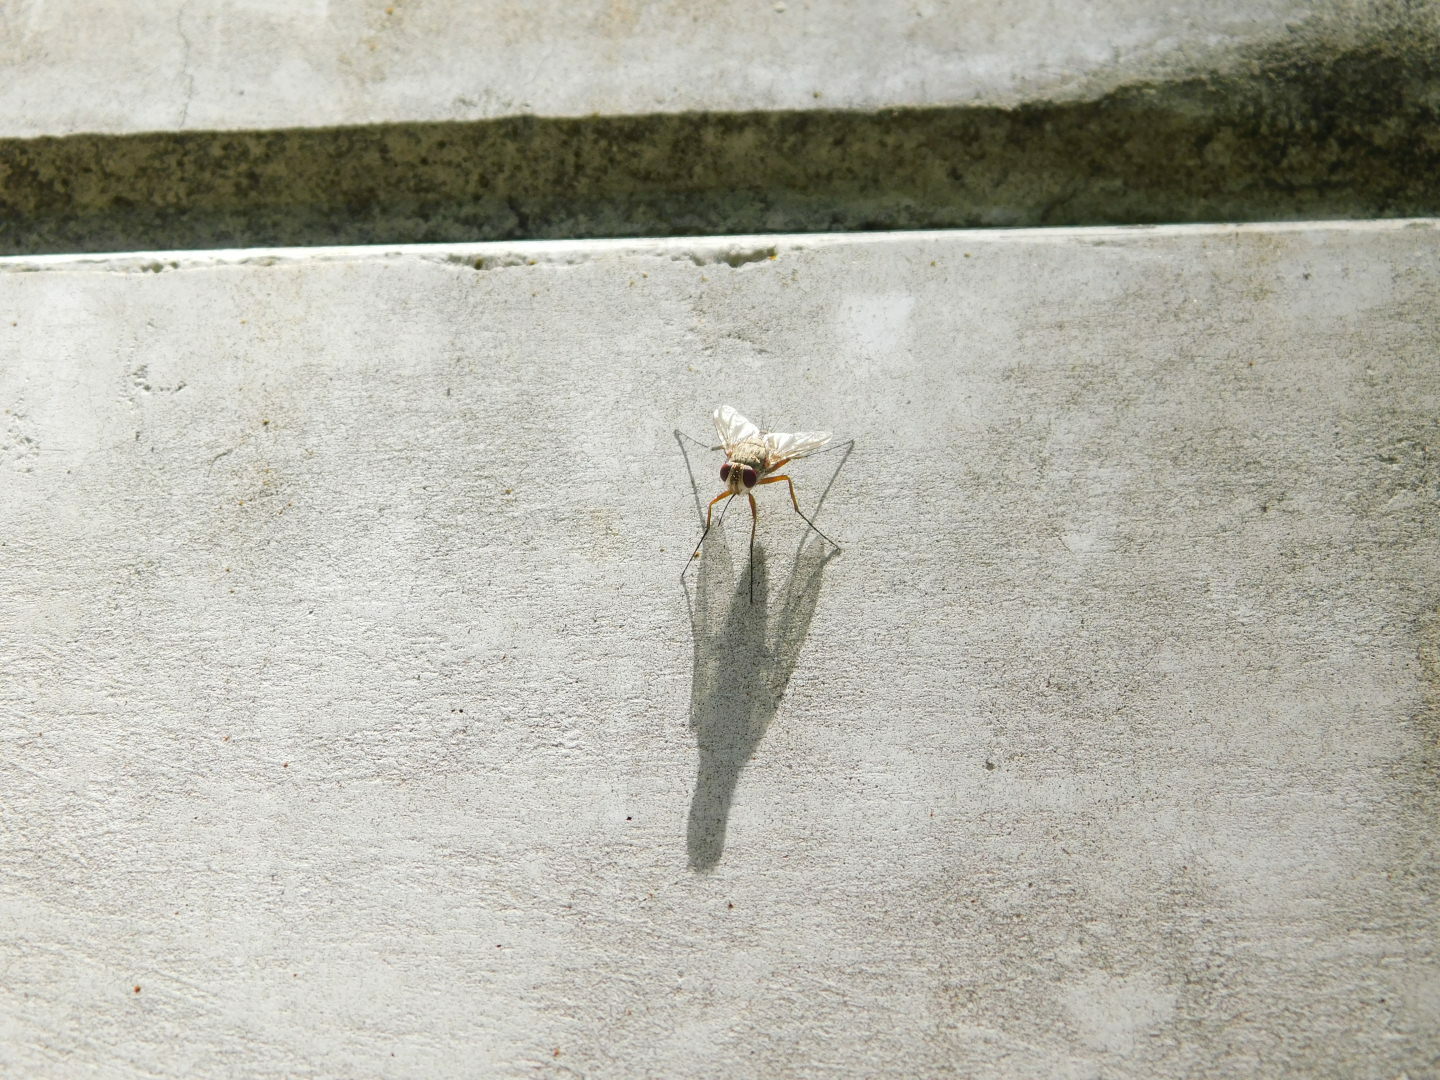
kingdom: Animalia
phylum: Arthropoda
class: Insecta
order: Diptera
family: Tachinidae
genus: Prosena
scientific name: Prosena siberita
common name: Parasitic fly
